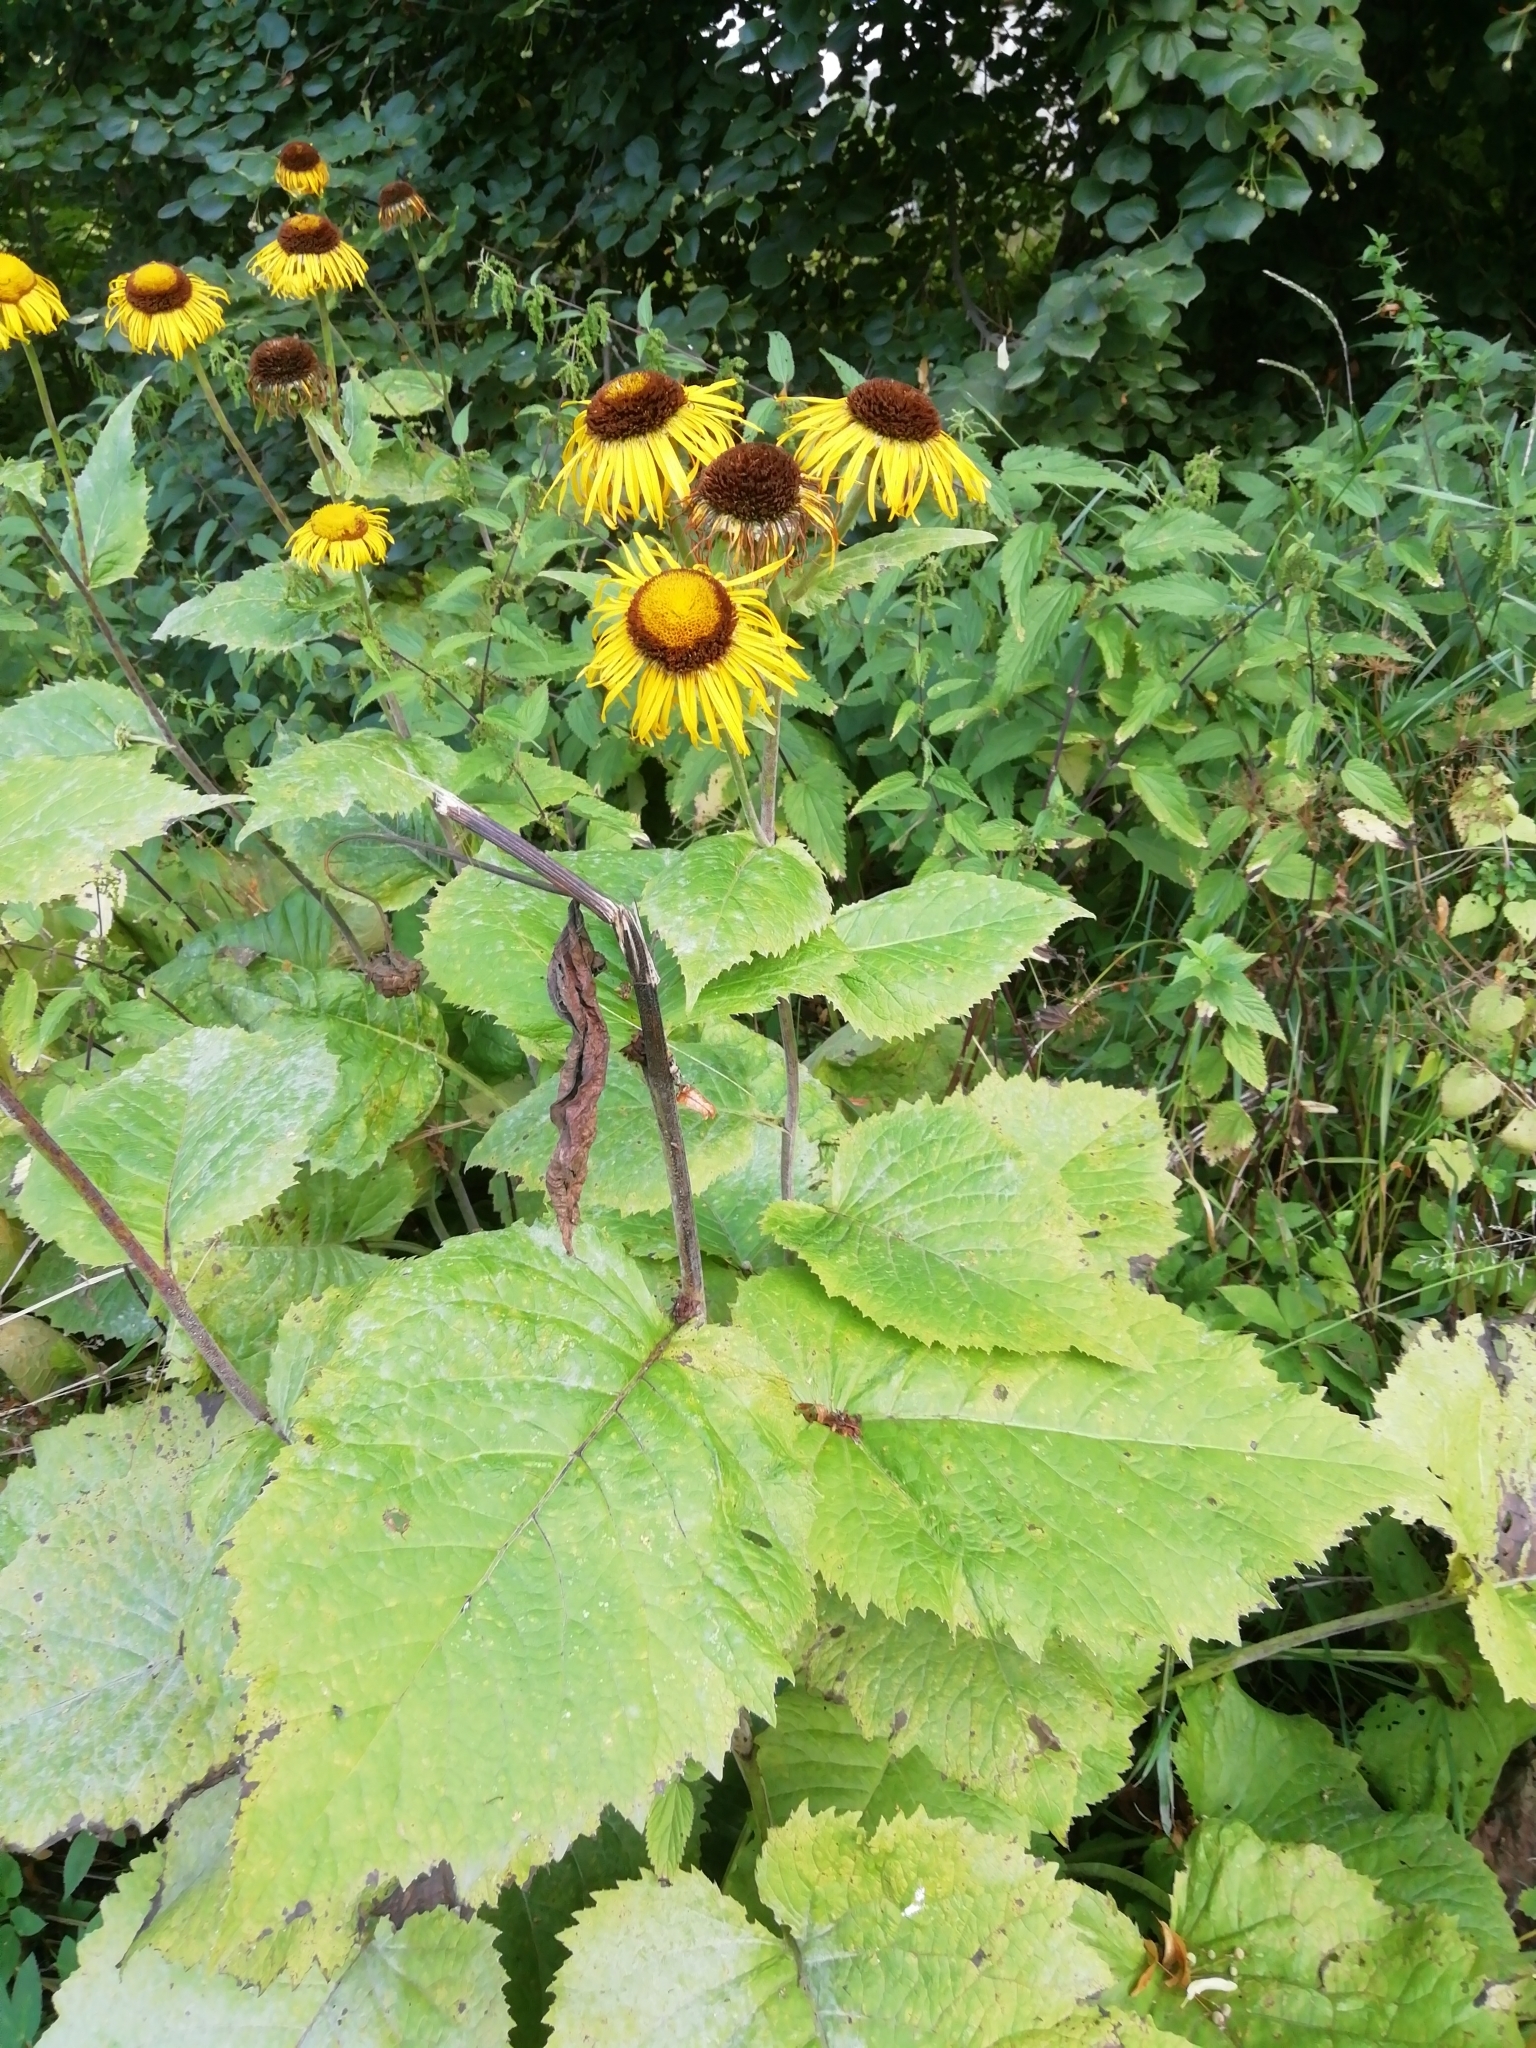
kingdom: Plantae
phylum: Tracheophyta
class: Magnoliopsida
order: Asterales
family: Asteraceae
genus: Telekia
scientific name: Telekia speciosa
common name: Yellow oxeye
